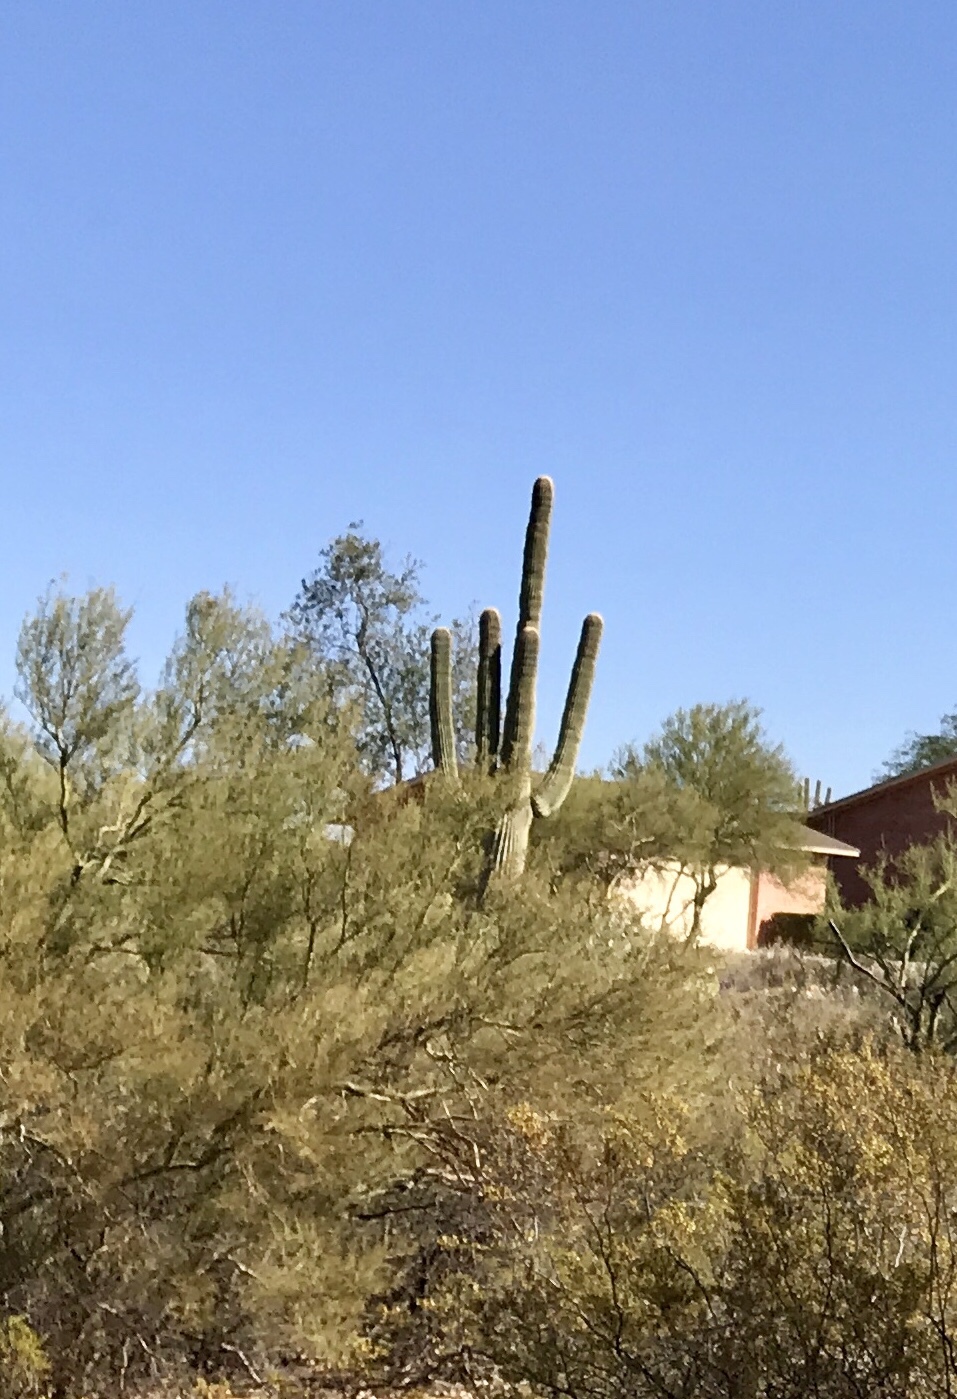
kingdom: Plantae
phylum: Tracheophyta
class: Magnoliopsida
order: Caryophyllales
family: Cactaceae
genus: Carnegiea
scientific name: Carnegiea gigantea
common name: Saguaro
